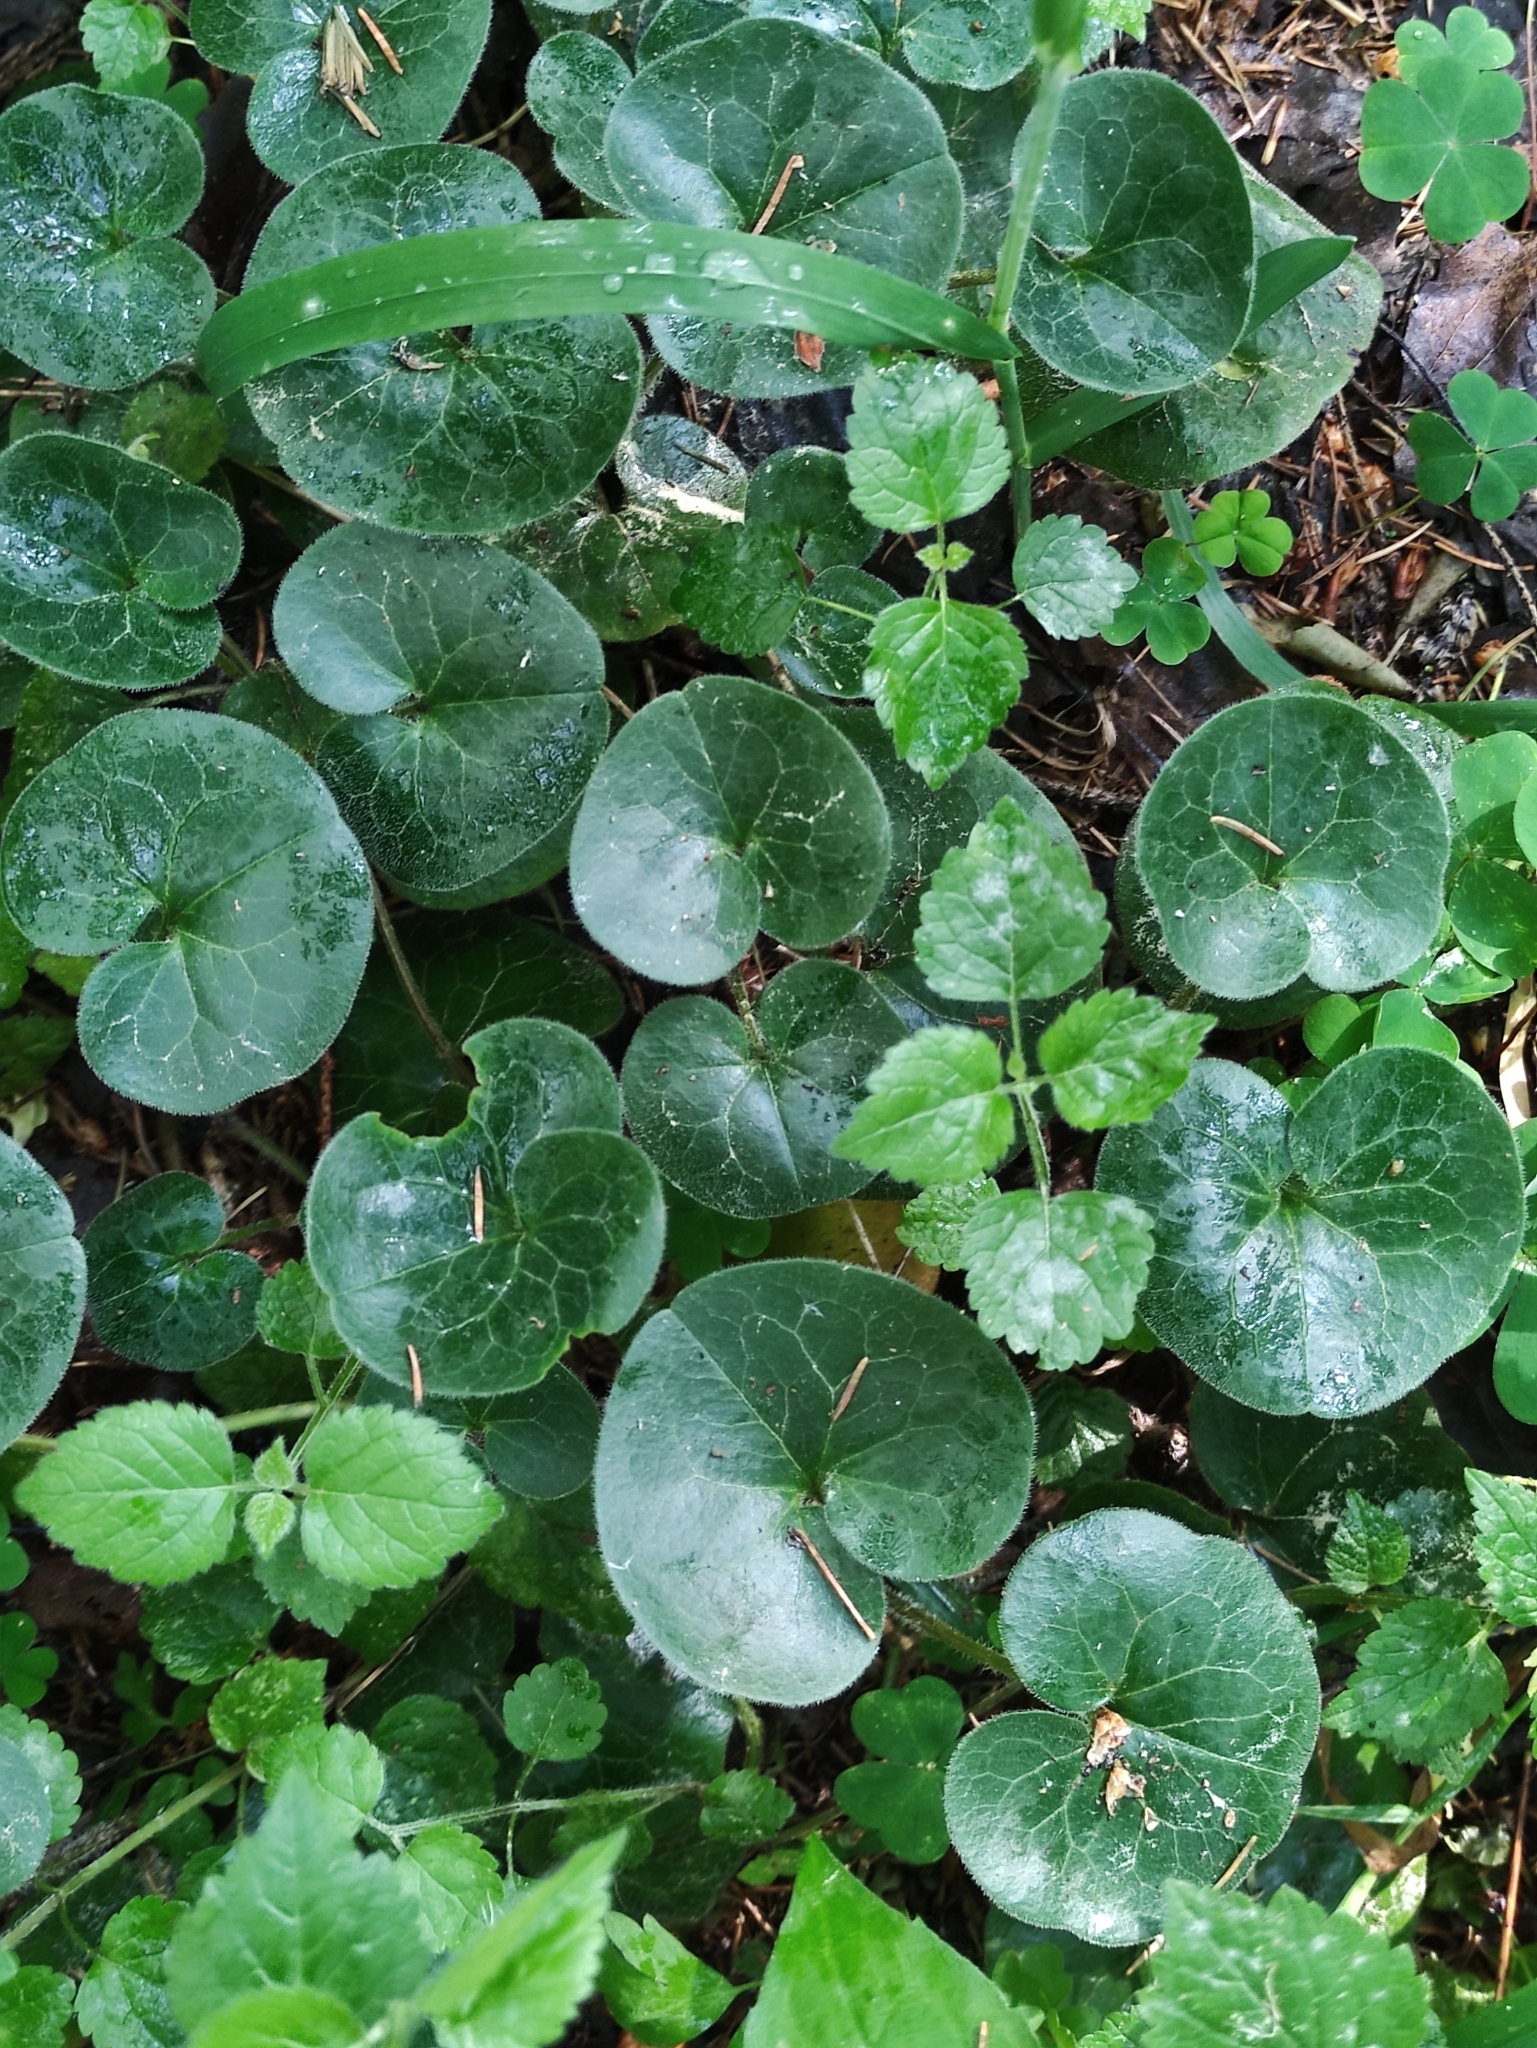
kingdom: Plantae
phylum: Tracheophyta
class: Magnoliopsida
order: Piperales
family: Aristolochiaceae
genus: Asarum
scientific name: Asarum europaeum
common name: Asarabacca
